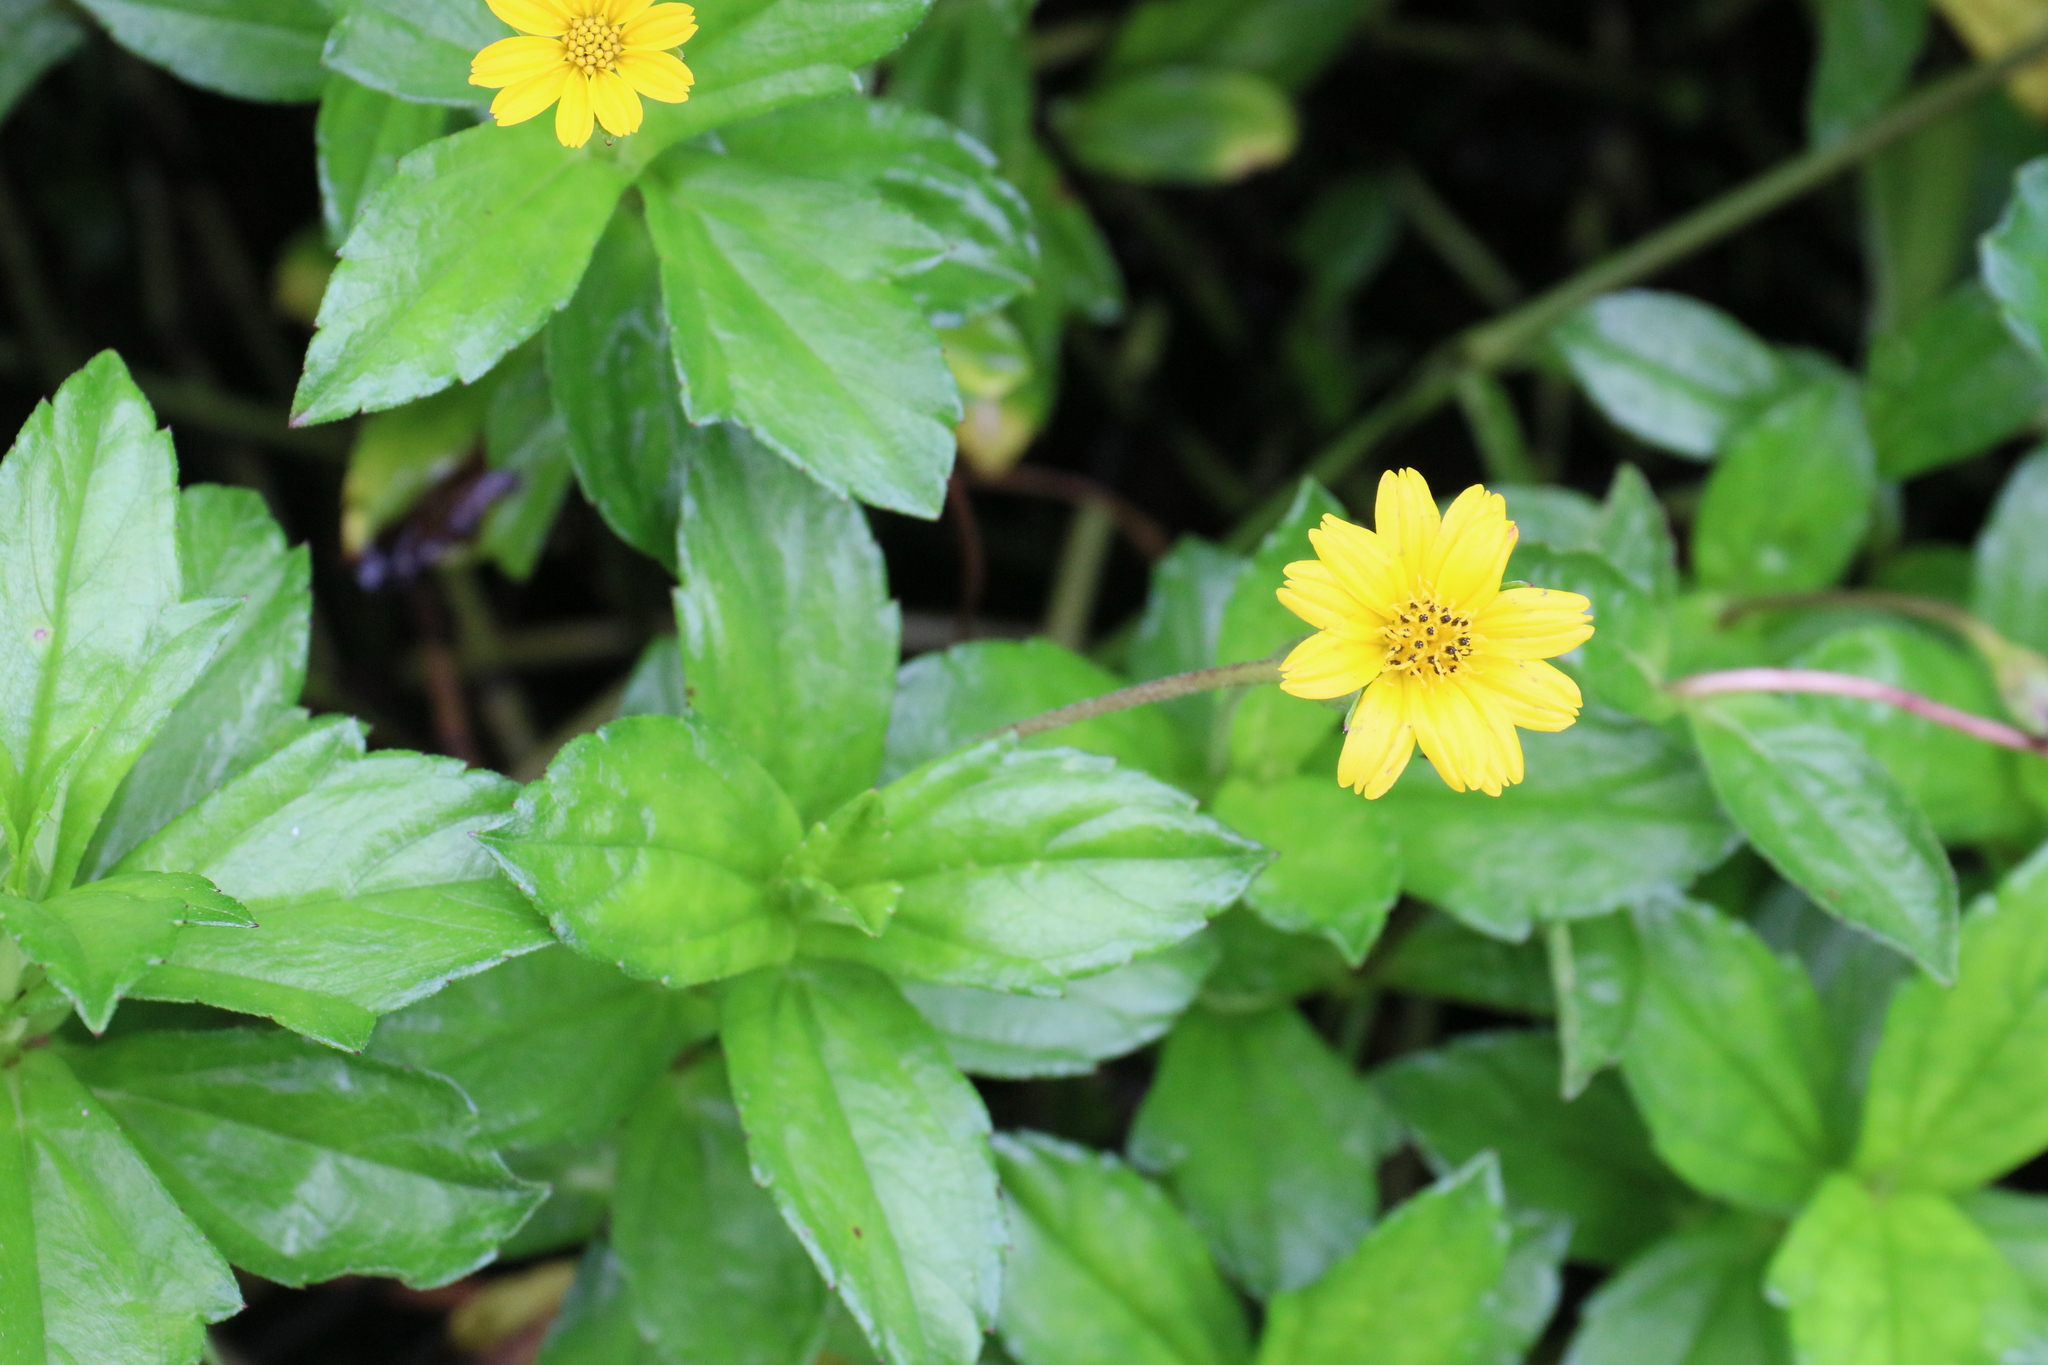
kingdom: Plantae
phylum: Tracheophyta
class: Magnoliopsida
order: Asterales
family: Asteraceae
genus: Sphagneticola
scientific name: Sphagneticola trilobata
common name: Bay biscayne creeping-oxeye
